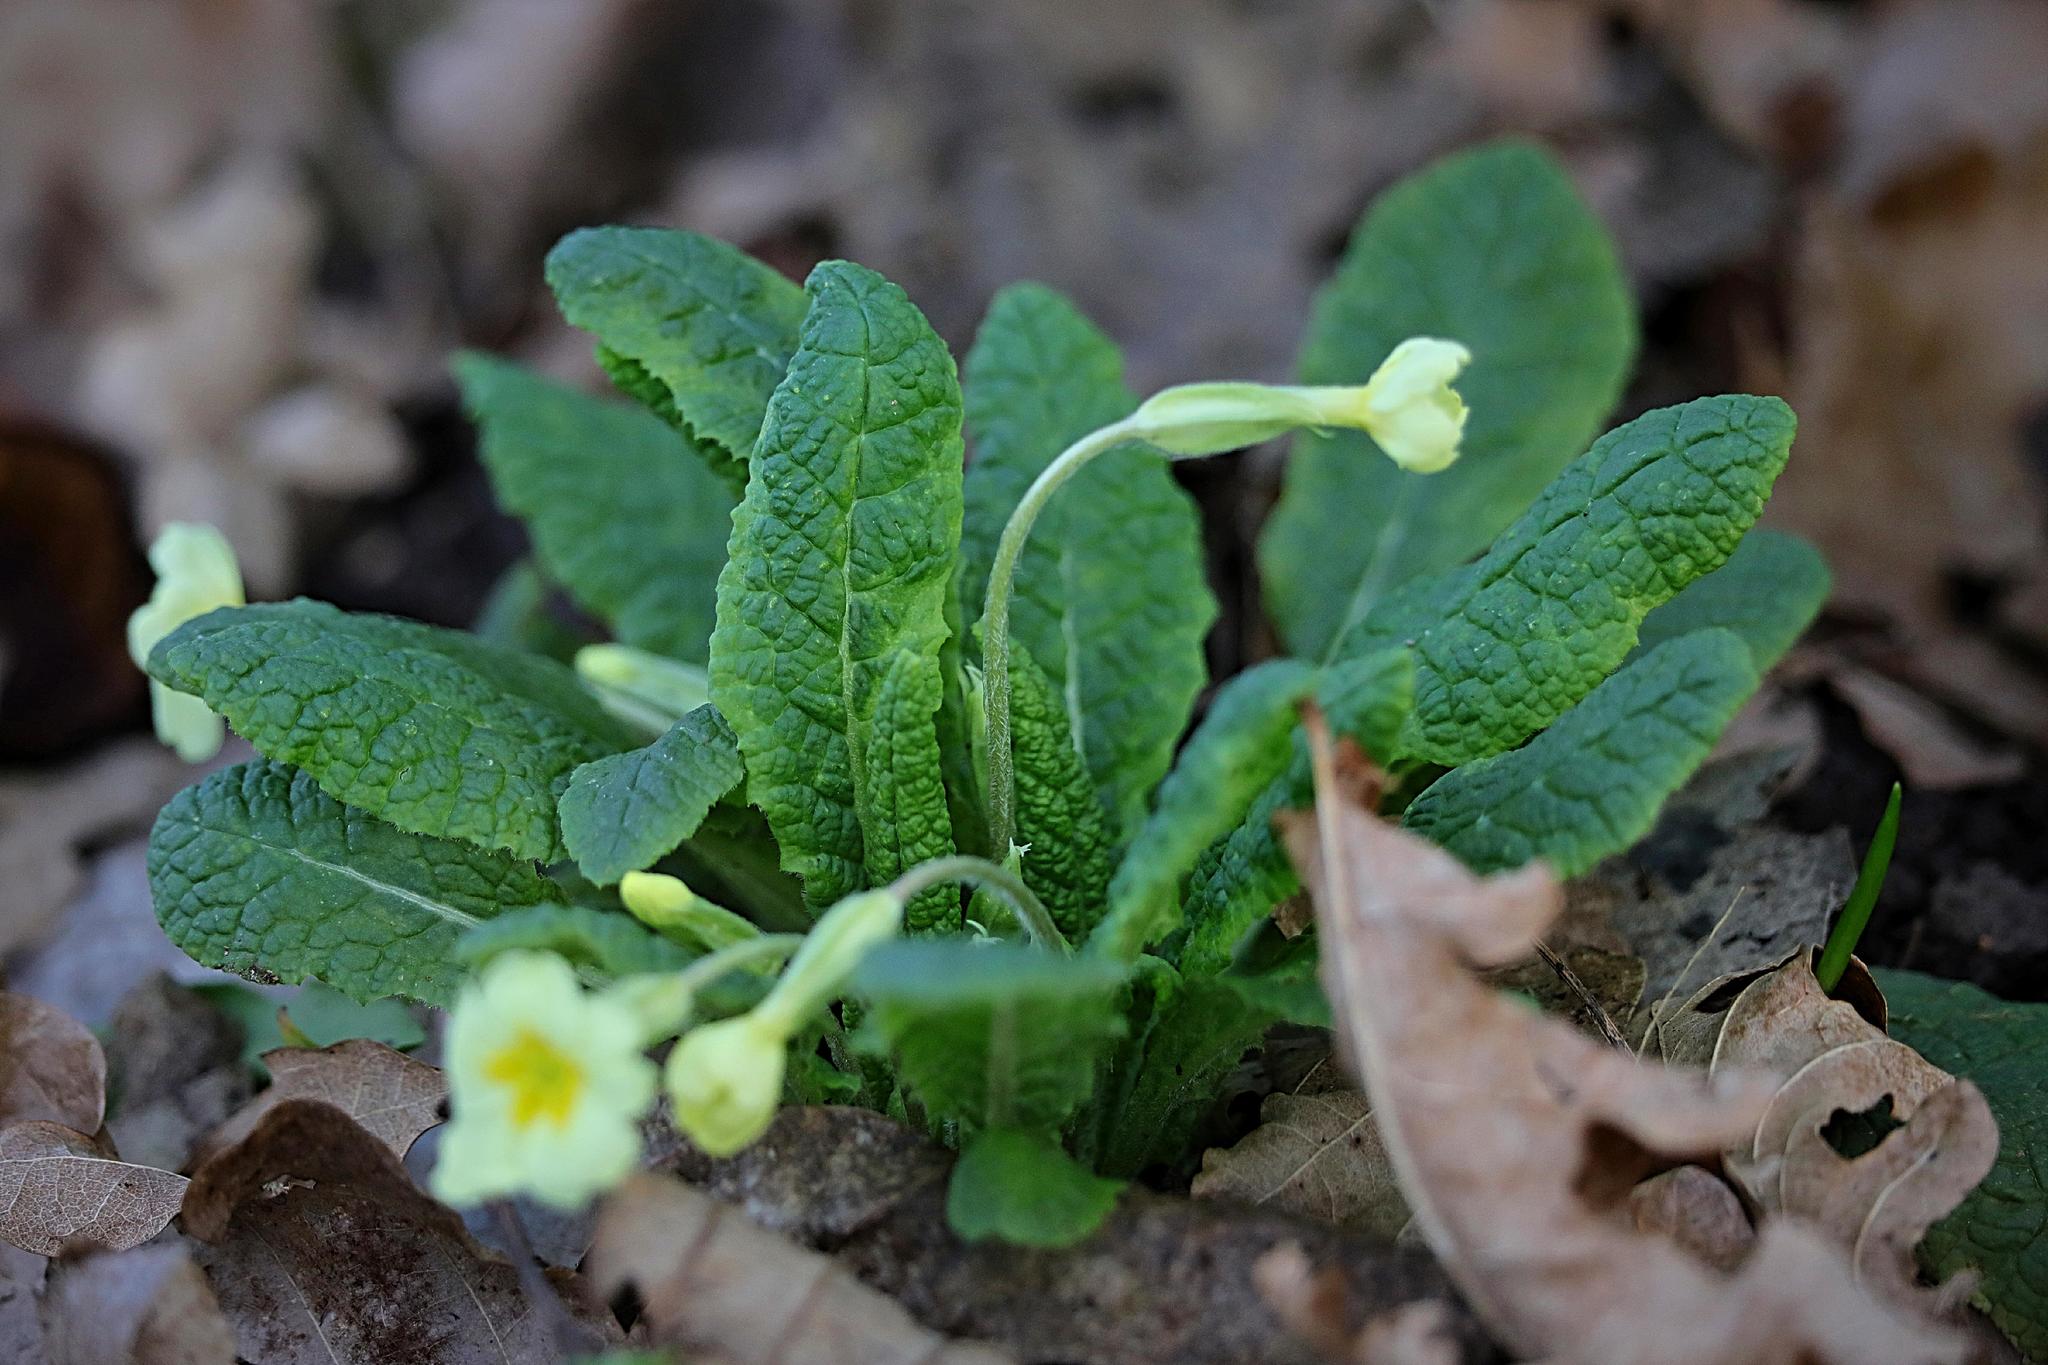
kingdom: Plantae
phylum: Tracheophyta
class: Magnoliopsida
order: Ericales
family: Primulaceae
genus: Primula
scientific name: Primula vulgaris
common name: Primrose
